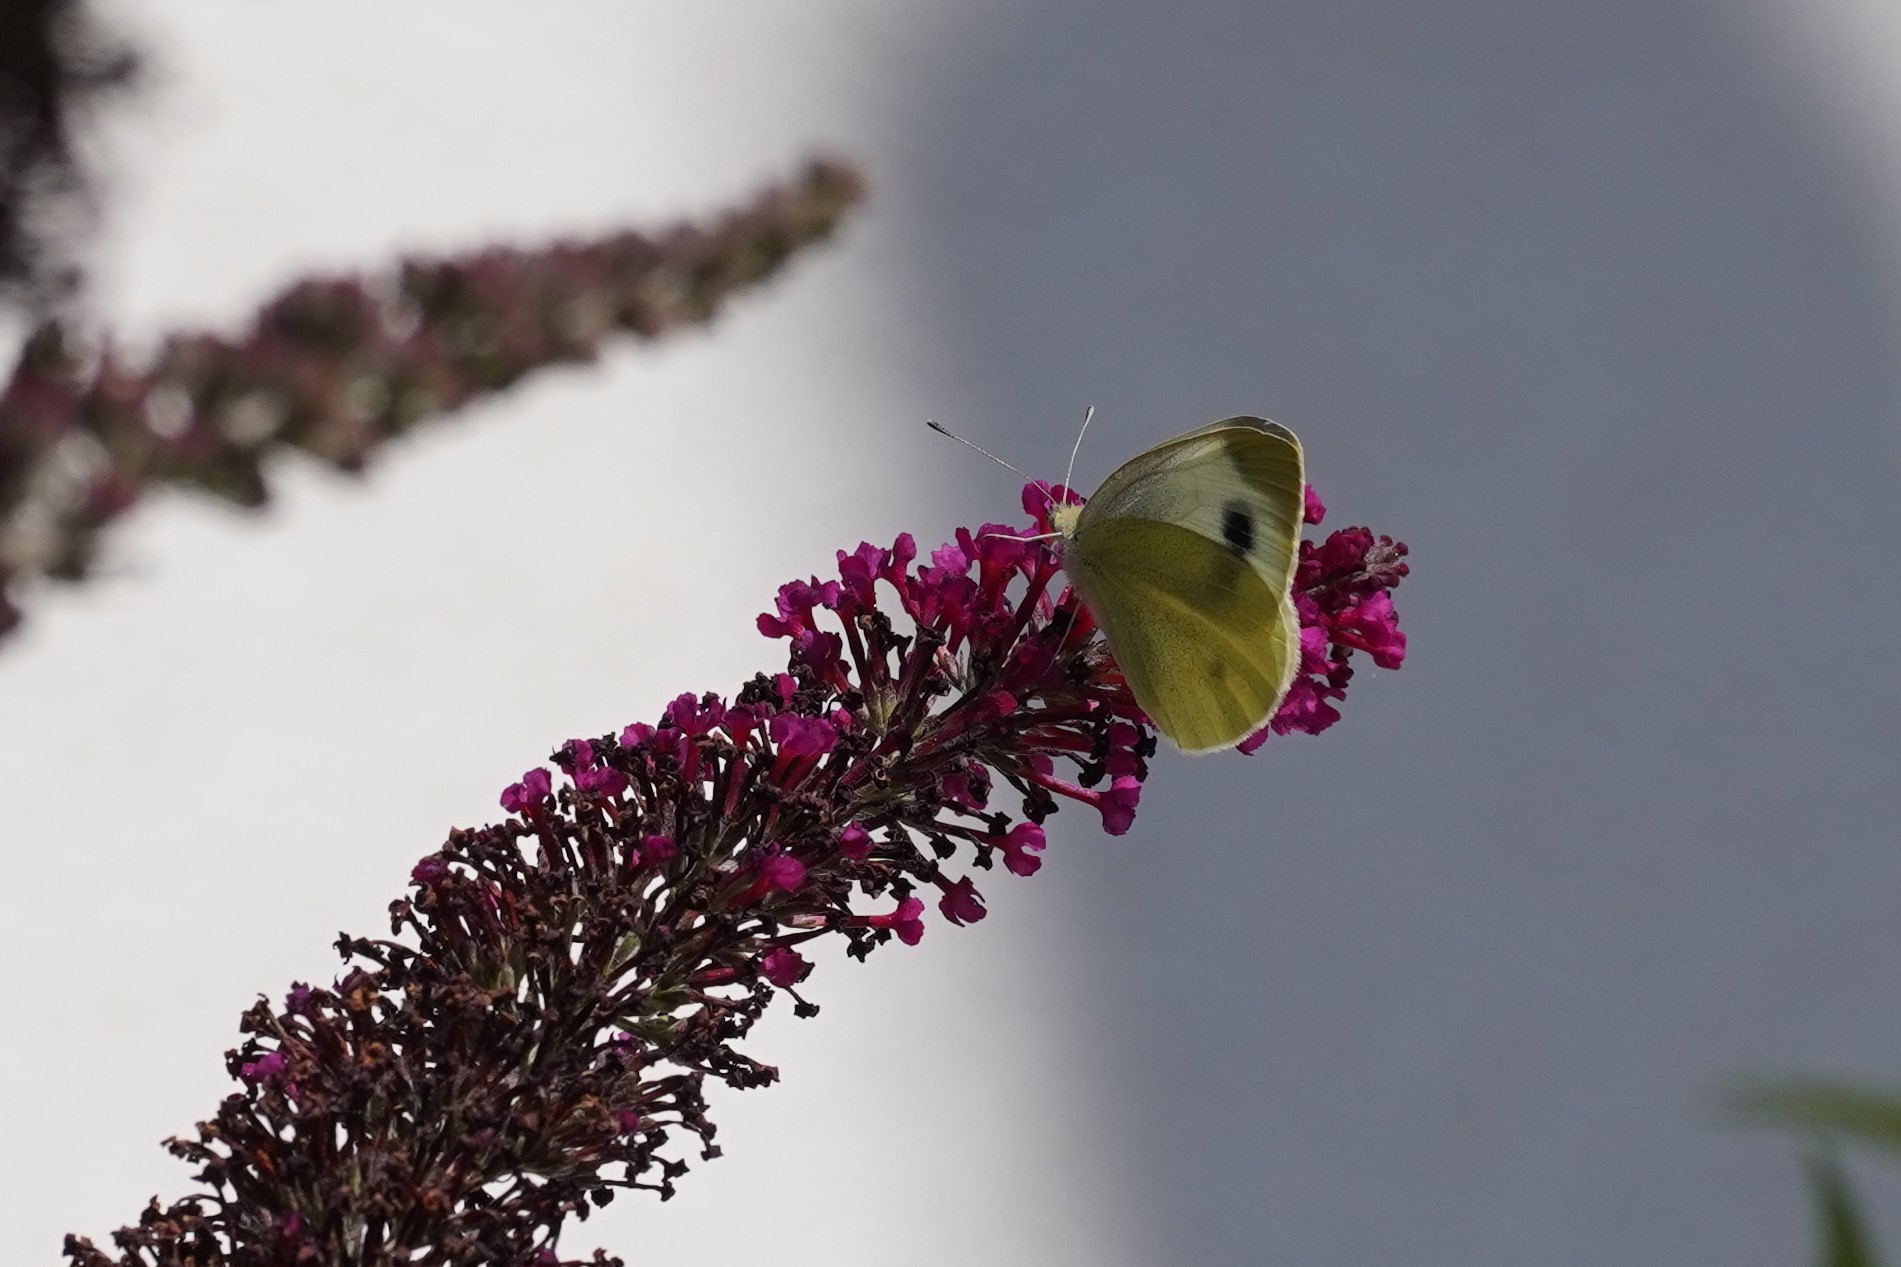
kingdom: Animalia
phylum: Arthropoda
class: Insecta
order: Lepidoptera
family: Pieridae
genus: Pieris
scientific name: Pieris mannii
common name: Southern small white
